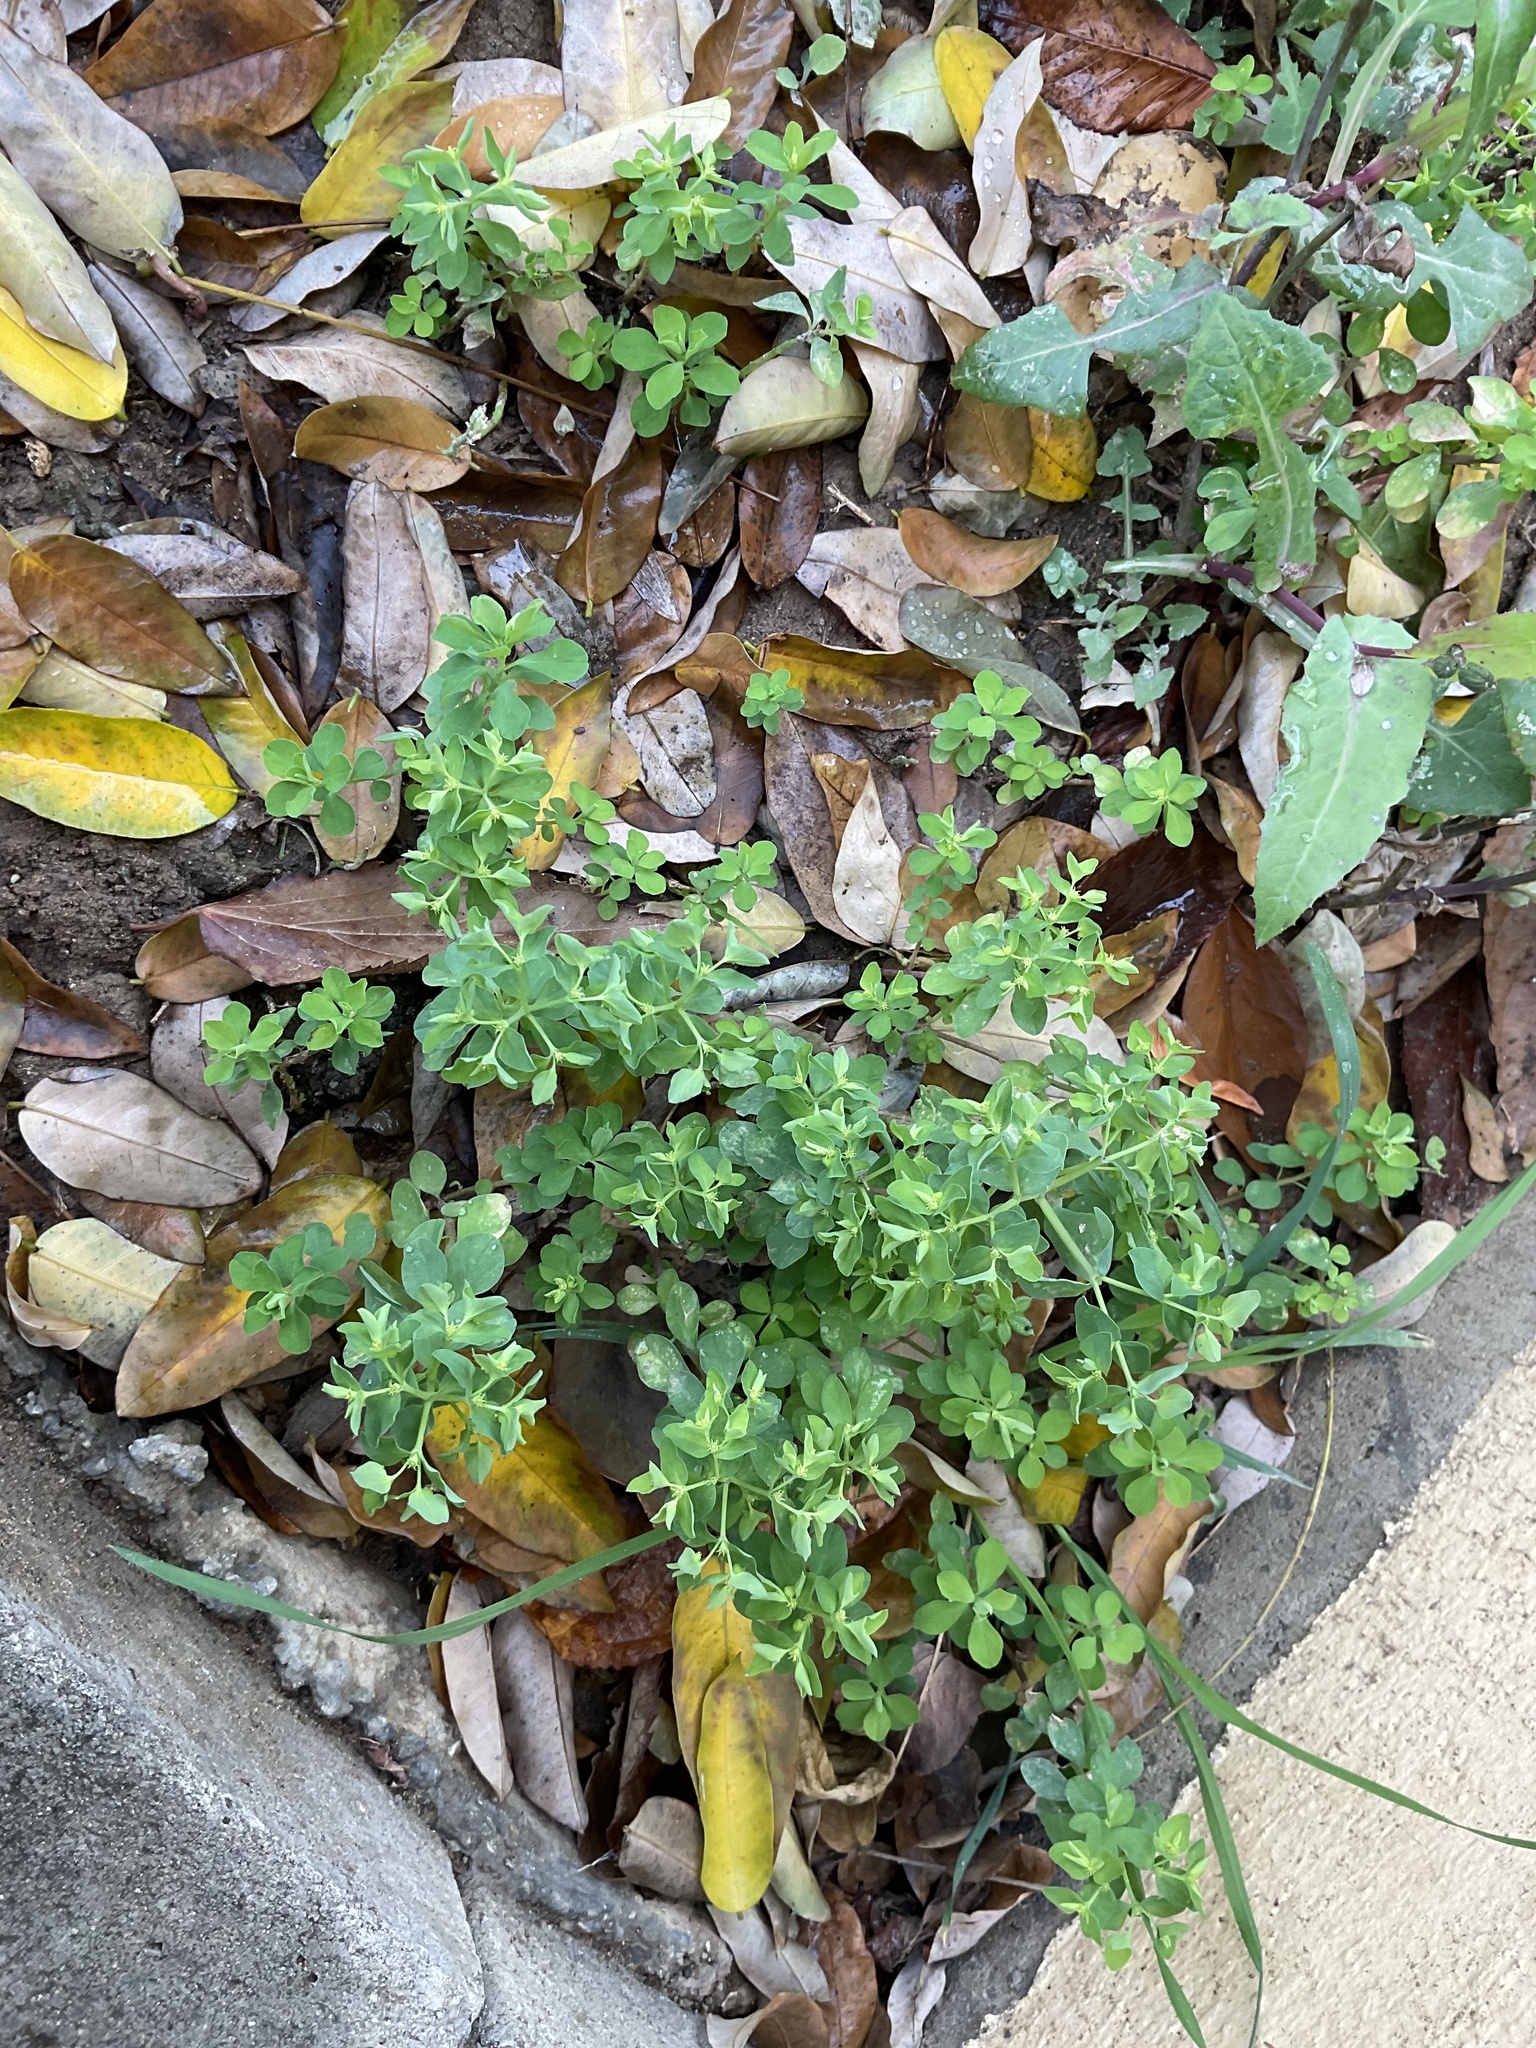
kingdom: Plantae
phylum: Tracheophyta
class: Magnoliopsida
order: Malpighiales
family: Euphorbiaceae
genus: Euphorbia
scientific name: Euphorbia peplus
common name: Petty spurge
